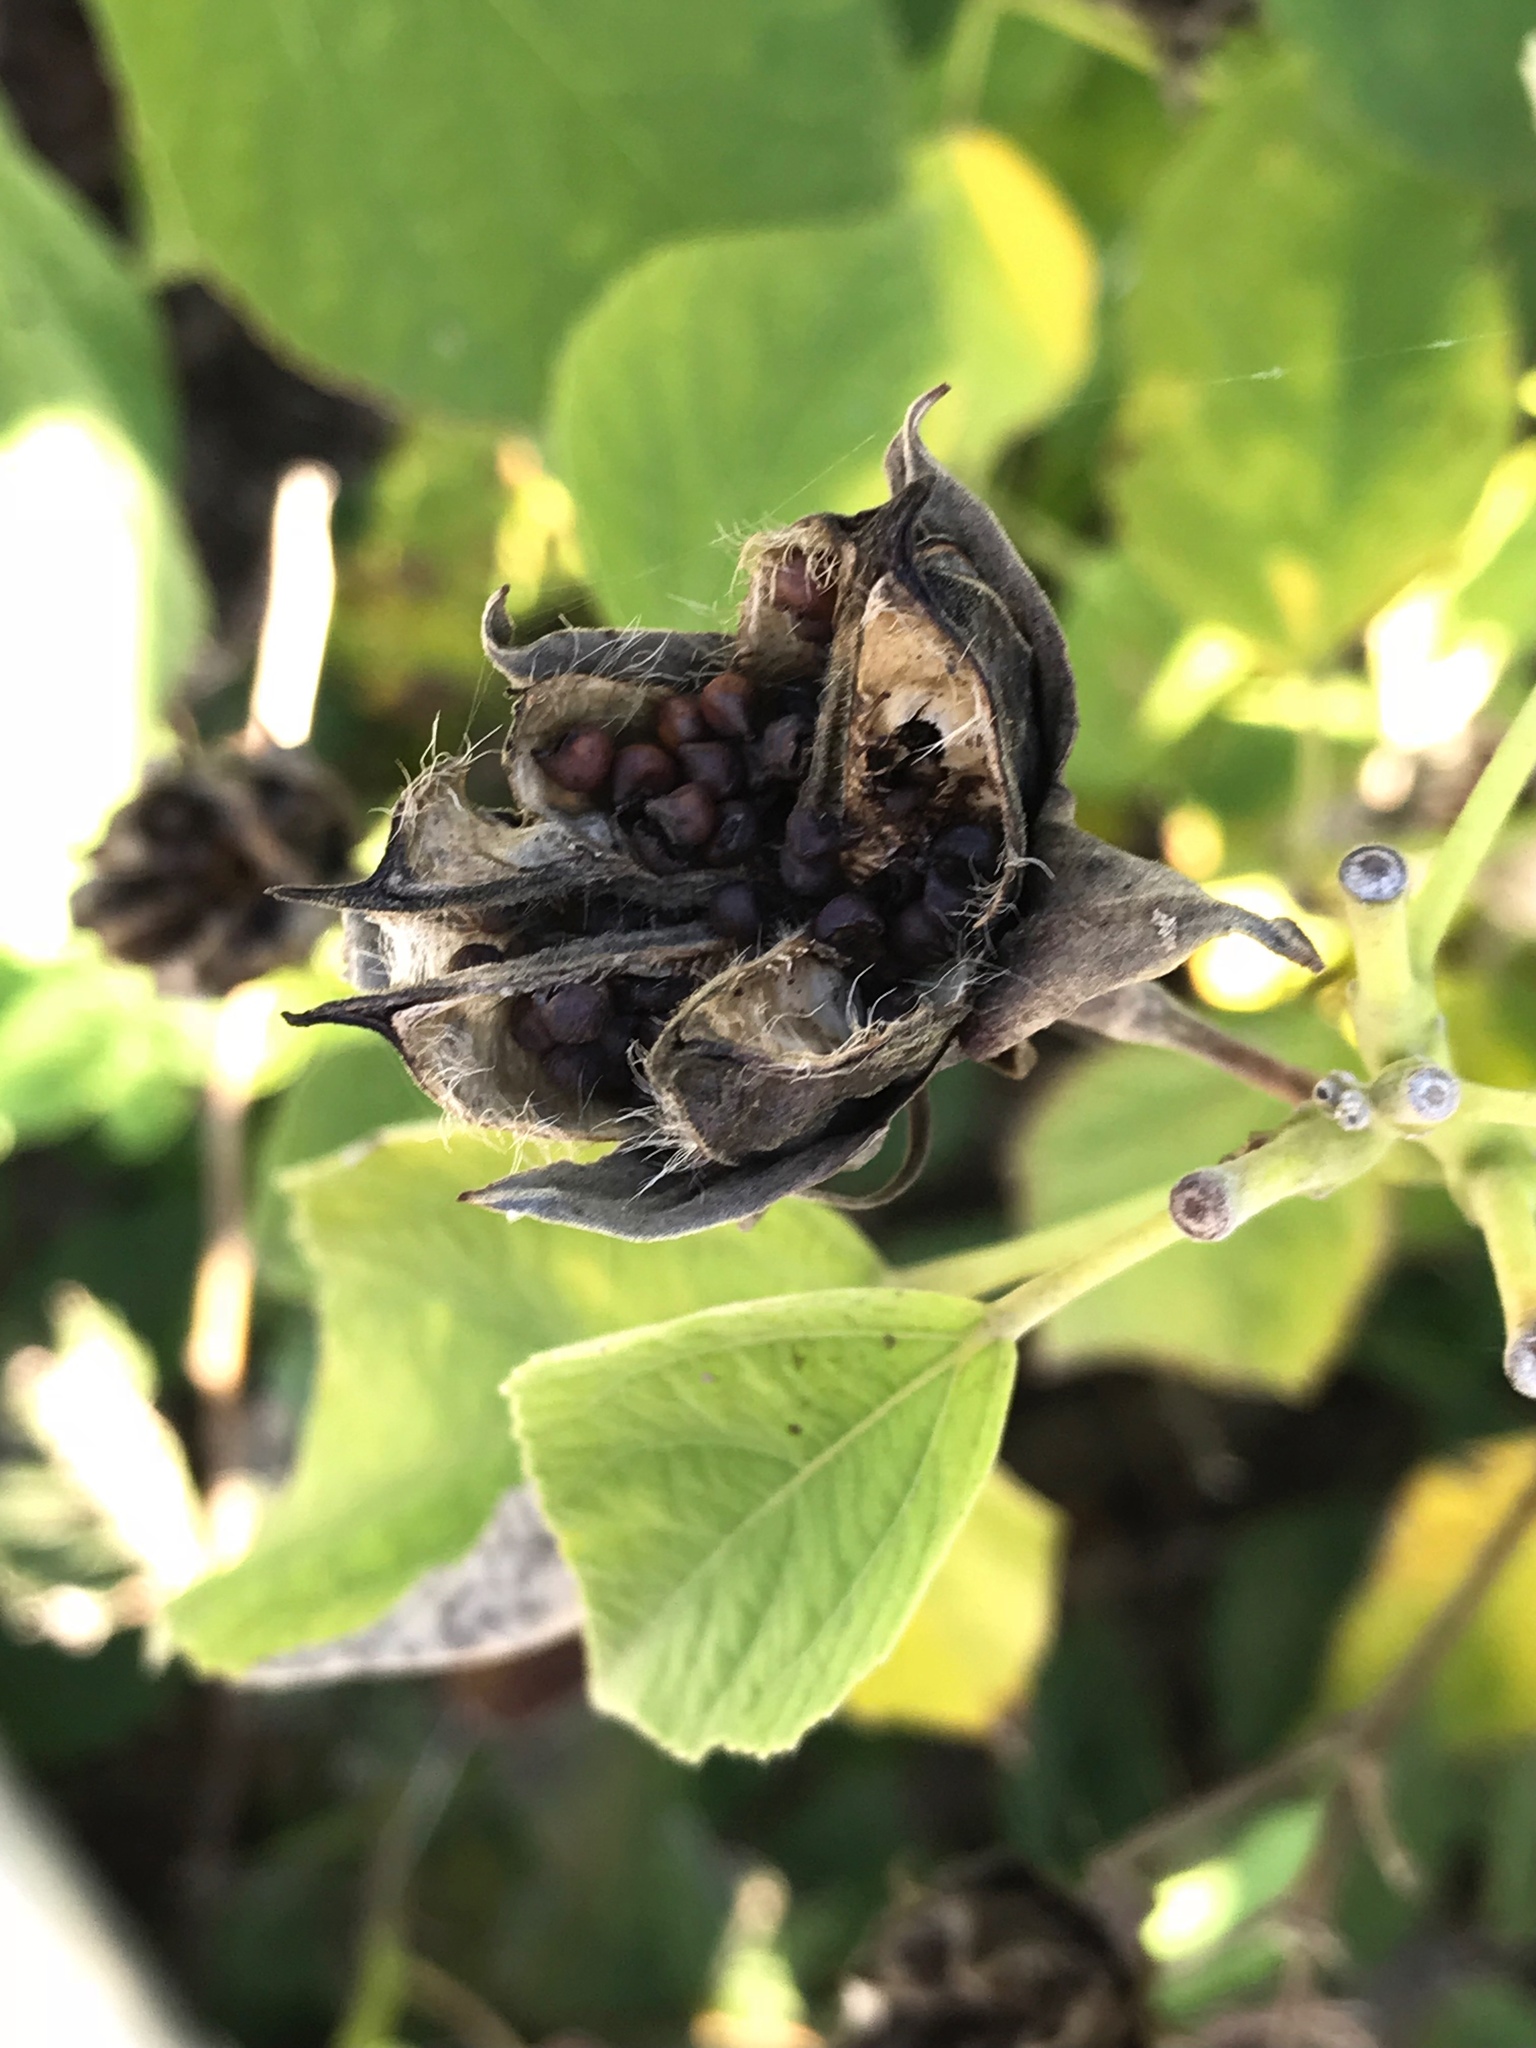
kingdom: Plantae
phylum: Tracheophyta
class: Magnoliopsida
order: Malvales
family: Malvaceae
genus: Hibiscus
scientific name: Hibiscus moscheutos
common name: Common rose-mallow
